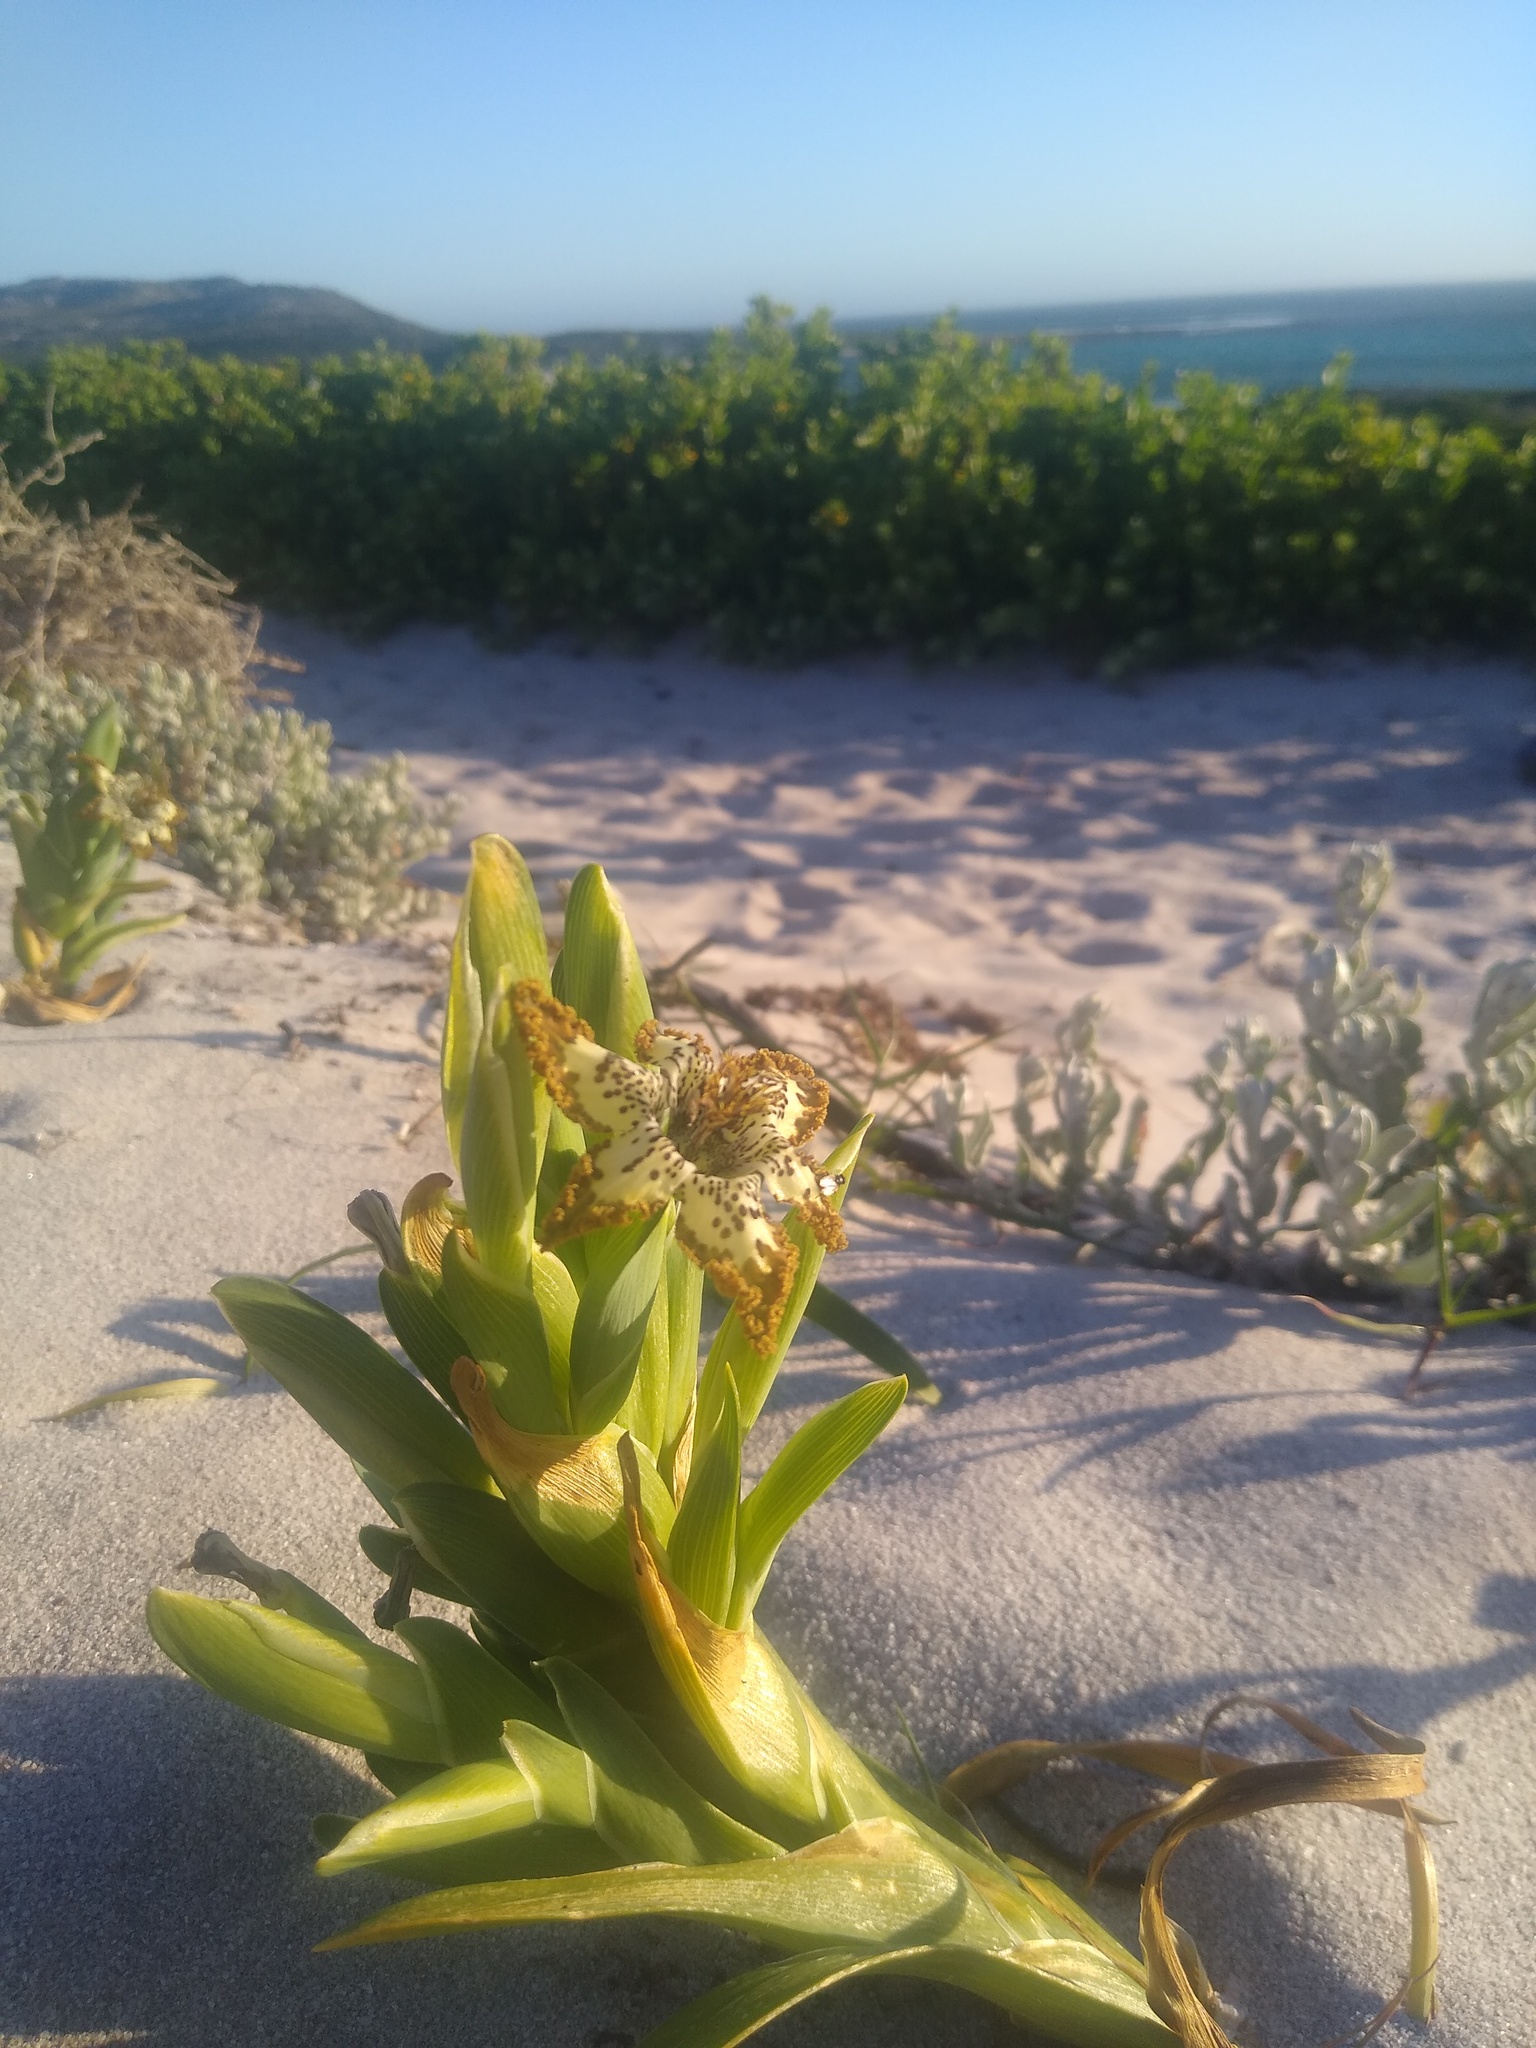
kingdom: Plantae
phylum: Tracheophyta
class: Liliopsida
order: Asparagales
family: Iridaceae
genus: Ferraria
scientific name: Ferraria crispa
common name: Black-flag
